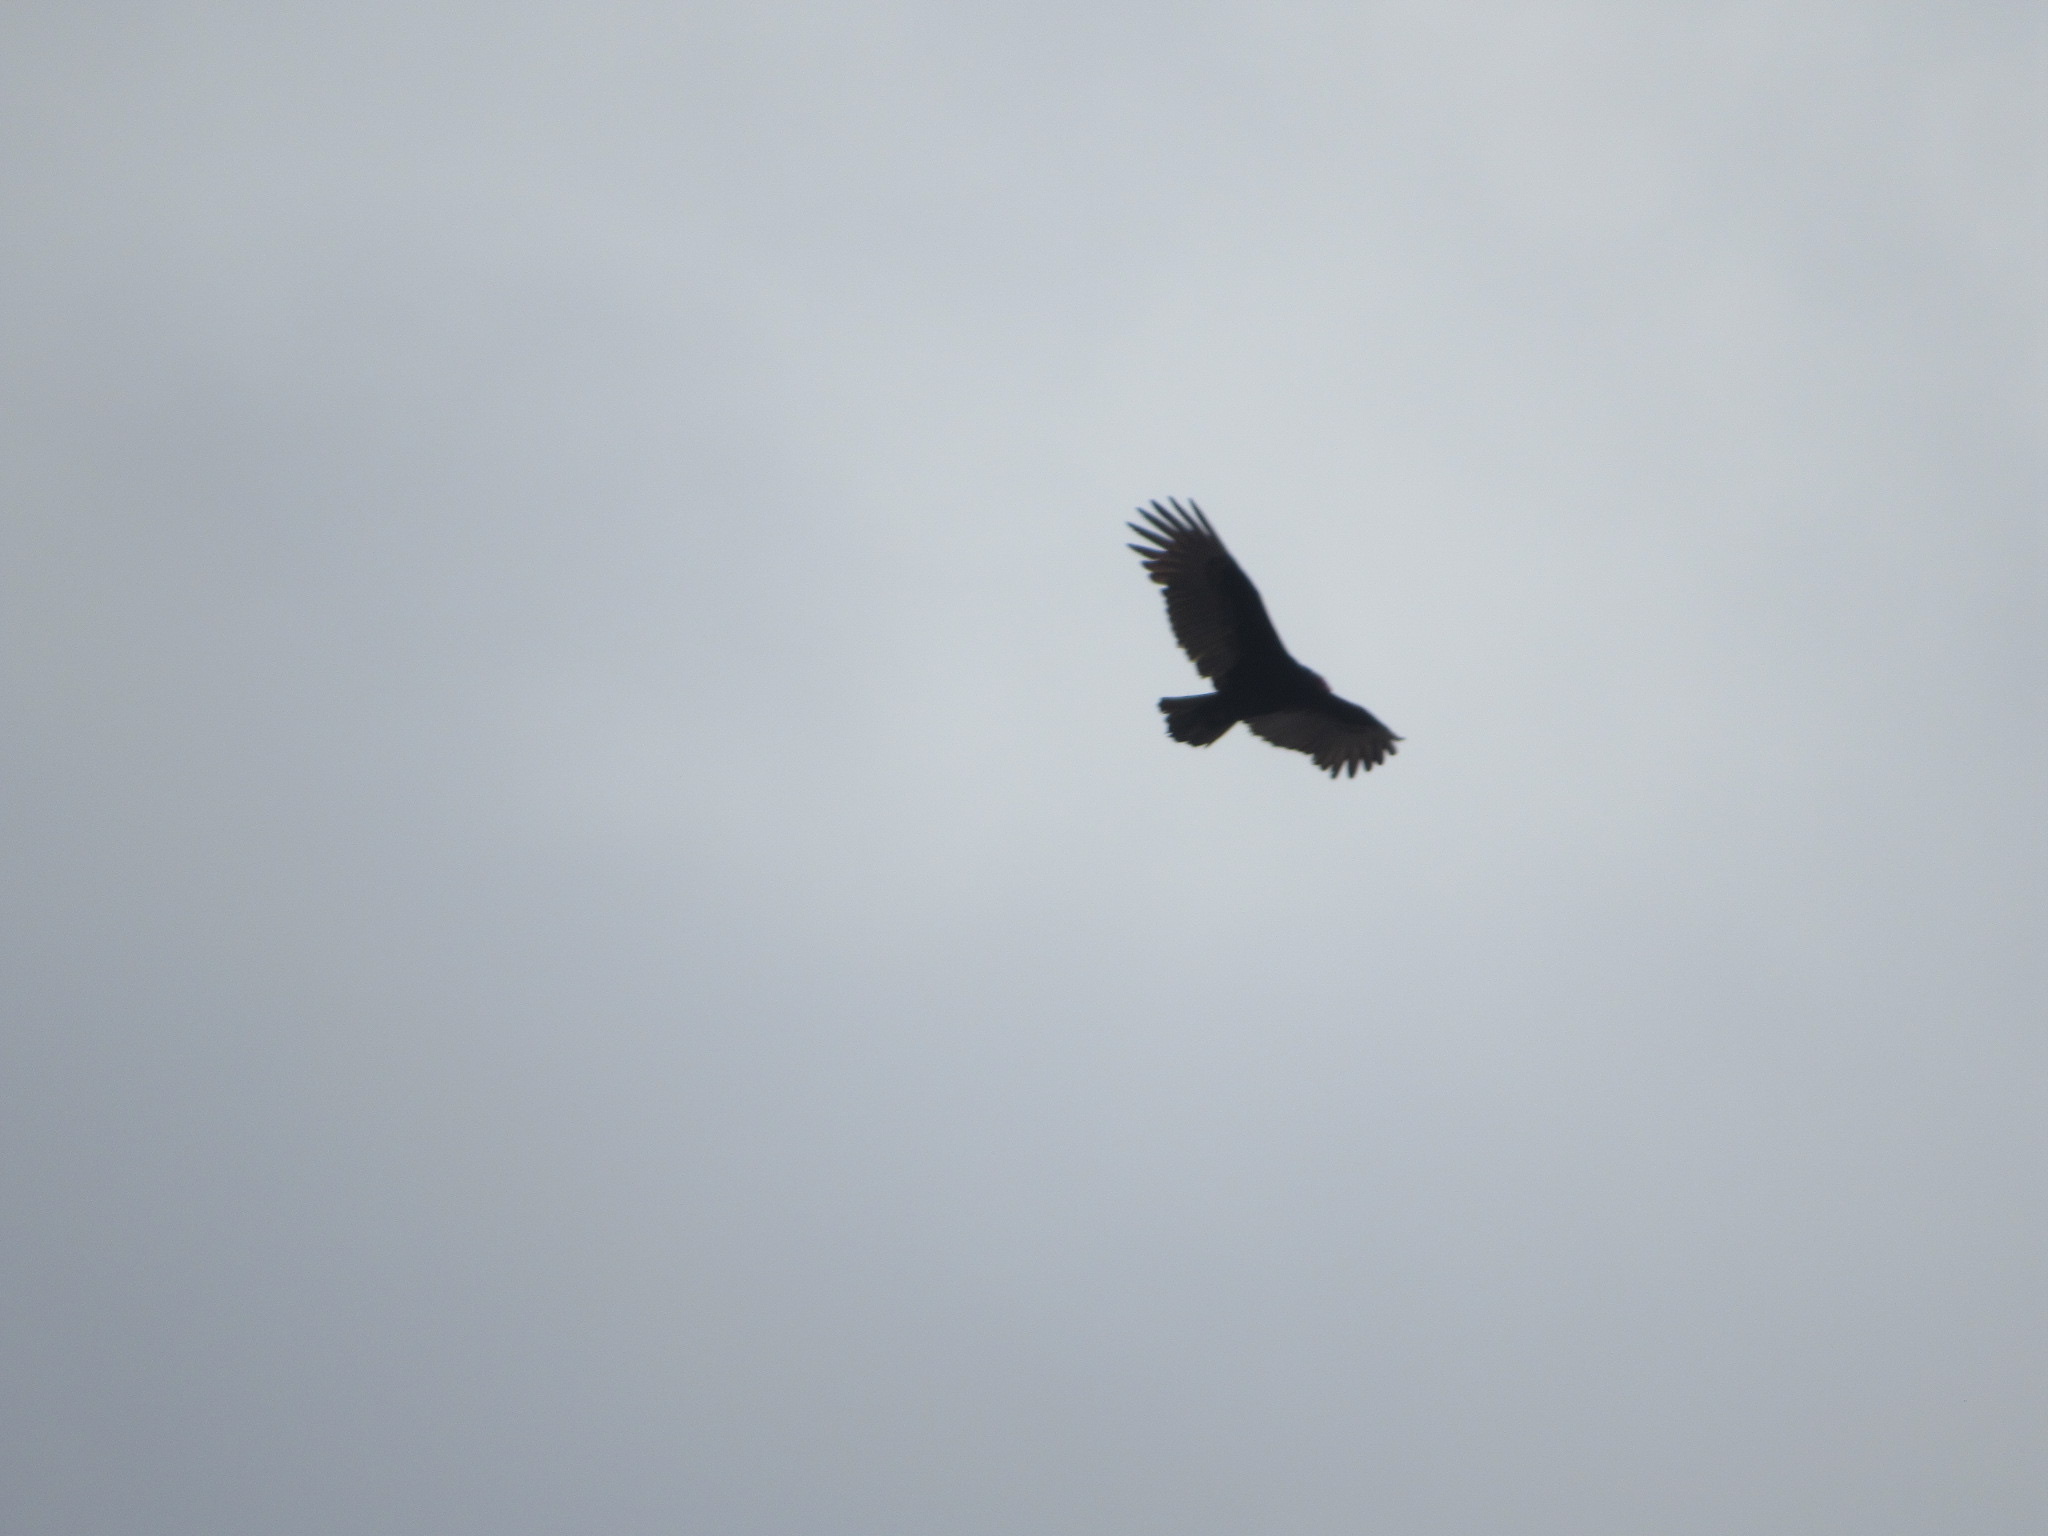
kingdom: Animalia
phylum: Chordata
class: Aves
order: Accipitriformes
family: Cathartidae
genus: Cathartes
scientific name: Cathartes aura
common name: Turkey vulture
